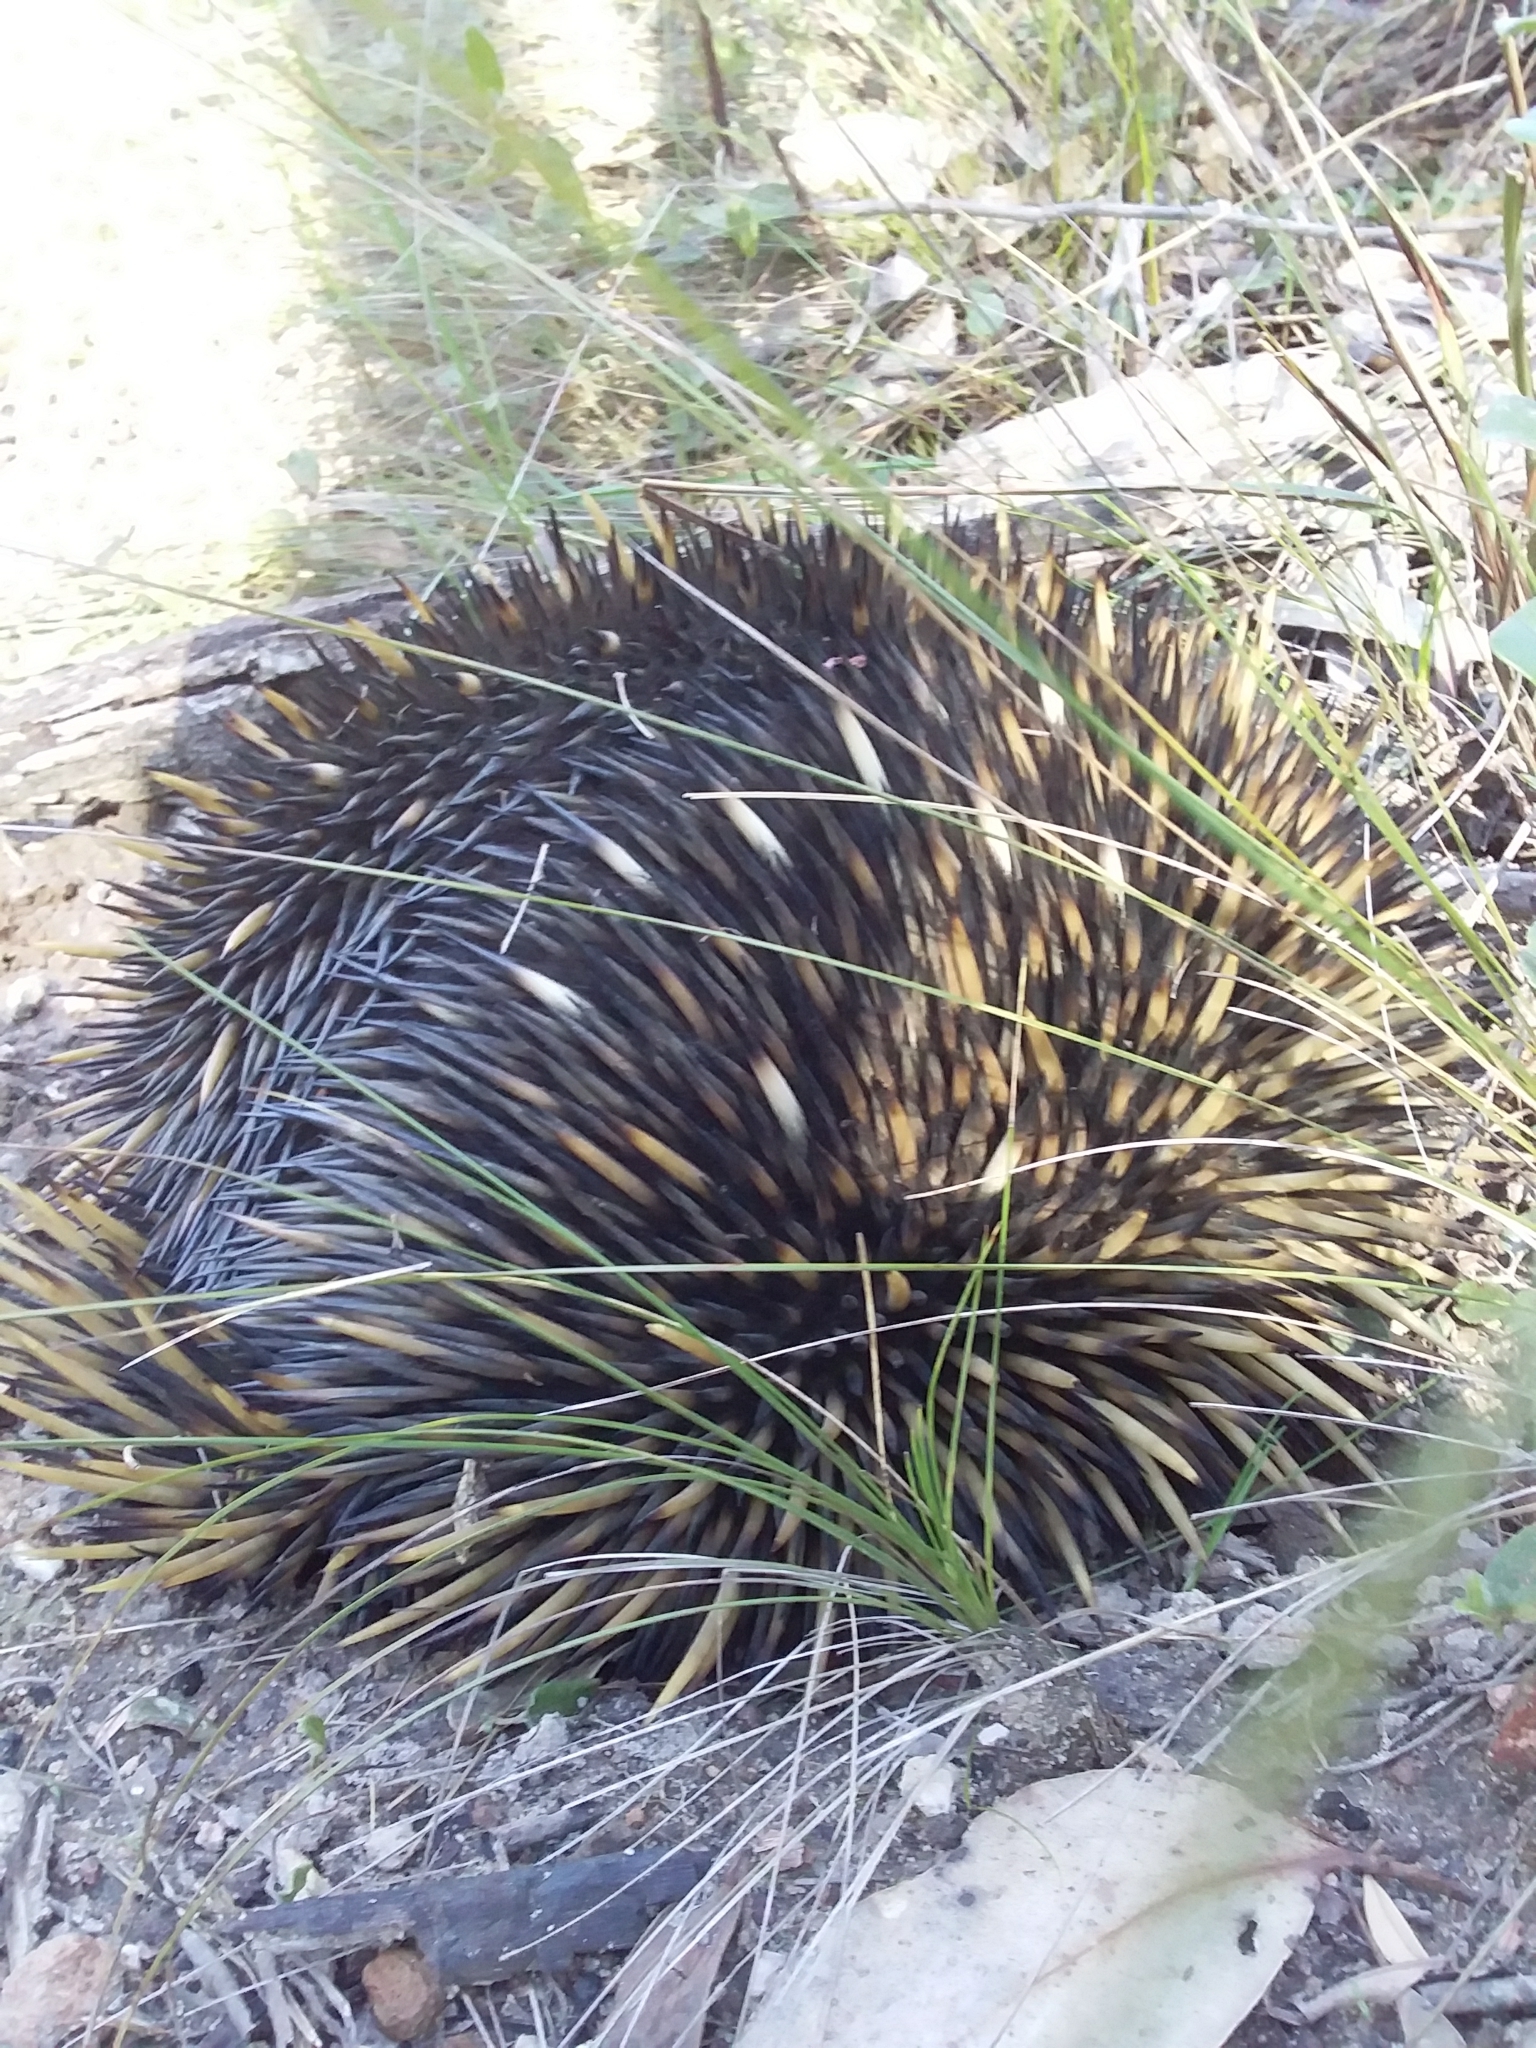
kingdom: Animalia
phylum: Chordata
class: Mammalia
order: Monotremata
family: Tachyglossidae
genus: Tachyglossus
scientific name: Tachyglossus aculeatus
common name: Short-beaked echidna
